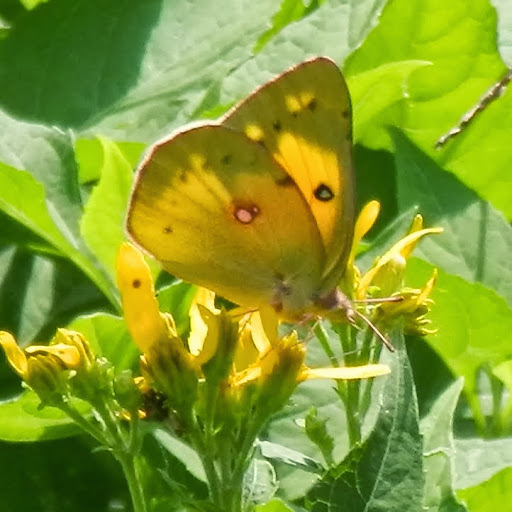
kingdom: Animalia
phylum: Arthropoda
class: Insecta
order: Lepidoptera
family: Pieridae
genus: Colias
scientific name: Colias eurytheme
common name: Alfalfa butterfly
